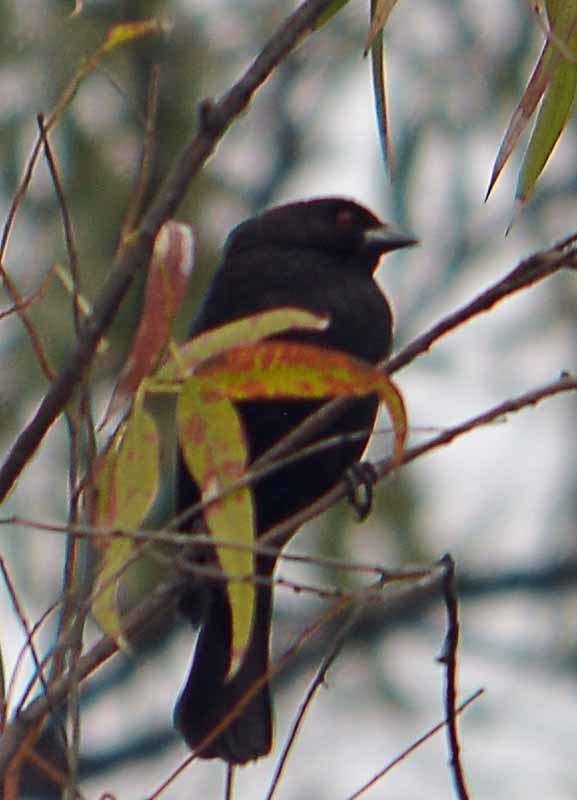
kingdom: Animalia
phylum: Chordata
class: Aves
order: Passeriformes
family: Icteridae
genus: Molothrus
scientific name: Molothrus aeneus
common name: Bronzed cowbird
